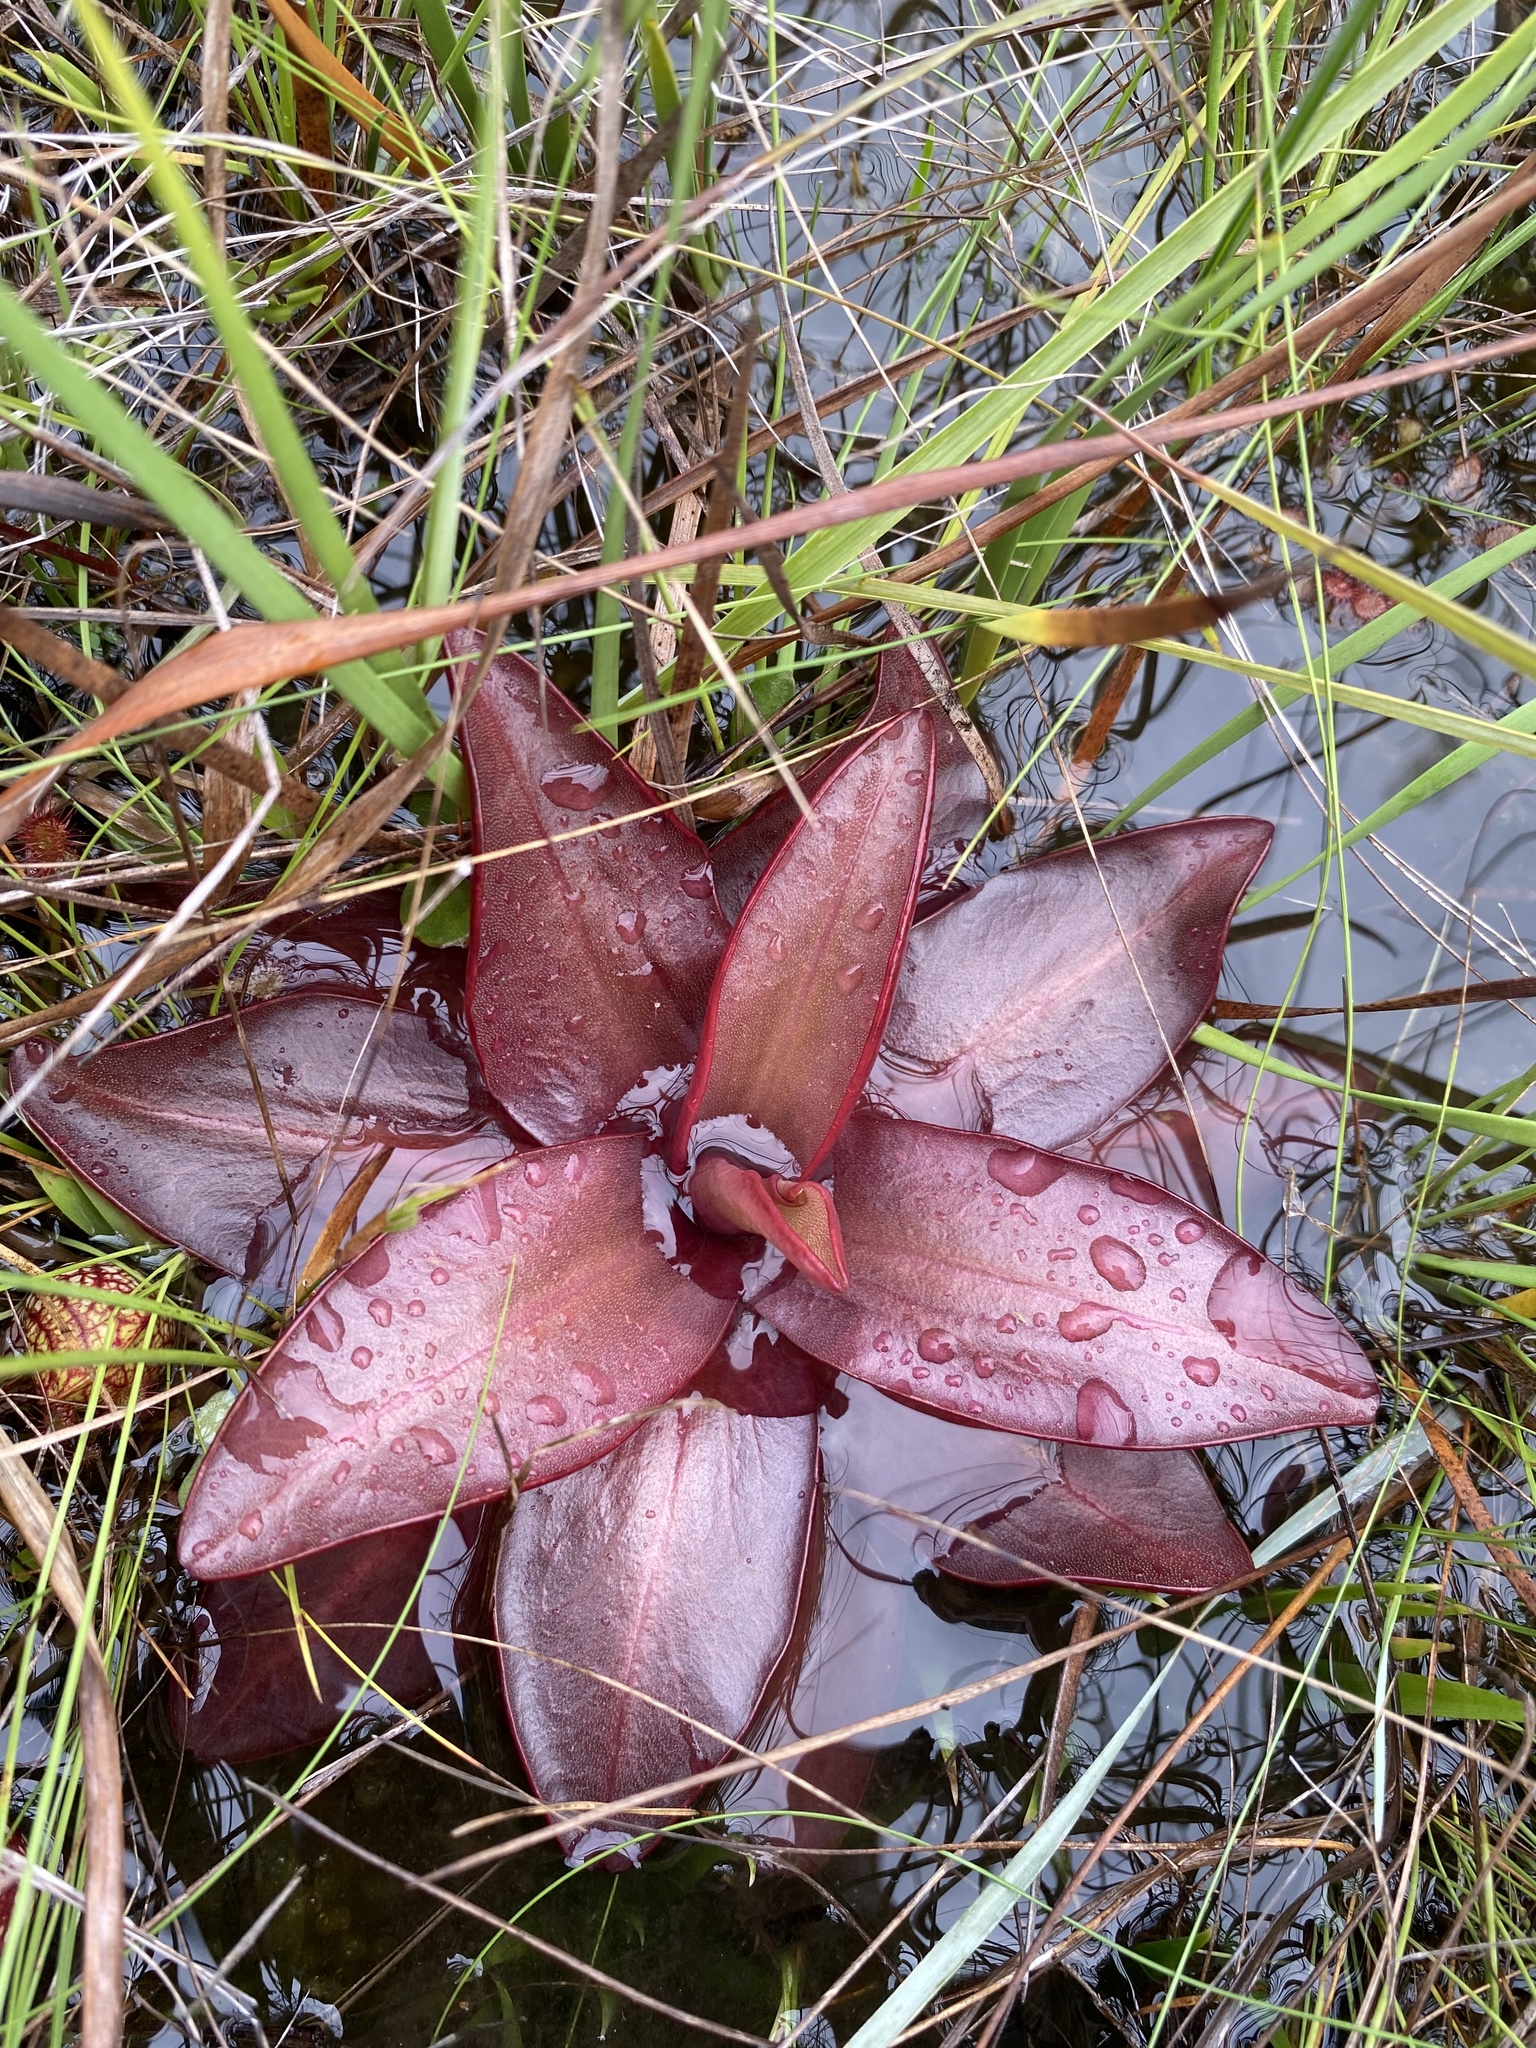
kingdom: Plantae
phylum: Tracheophyta
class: Magnoliopsida
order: Lamiales
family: Lentibulariaceae
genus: Pinguicula
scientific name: Pinguicula planifolia
